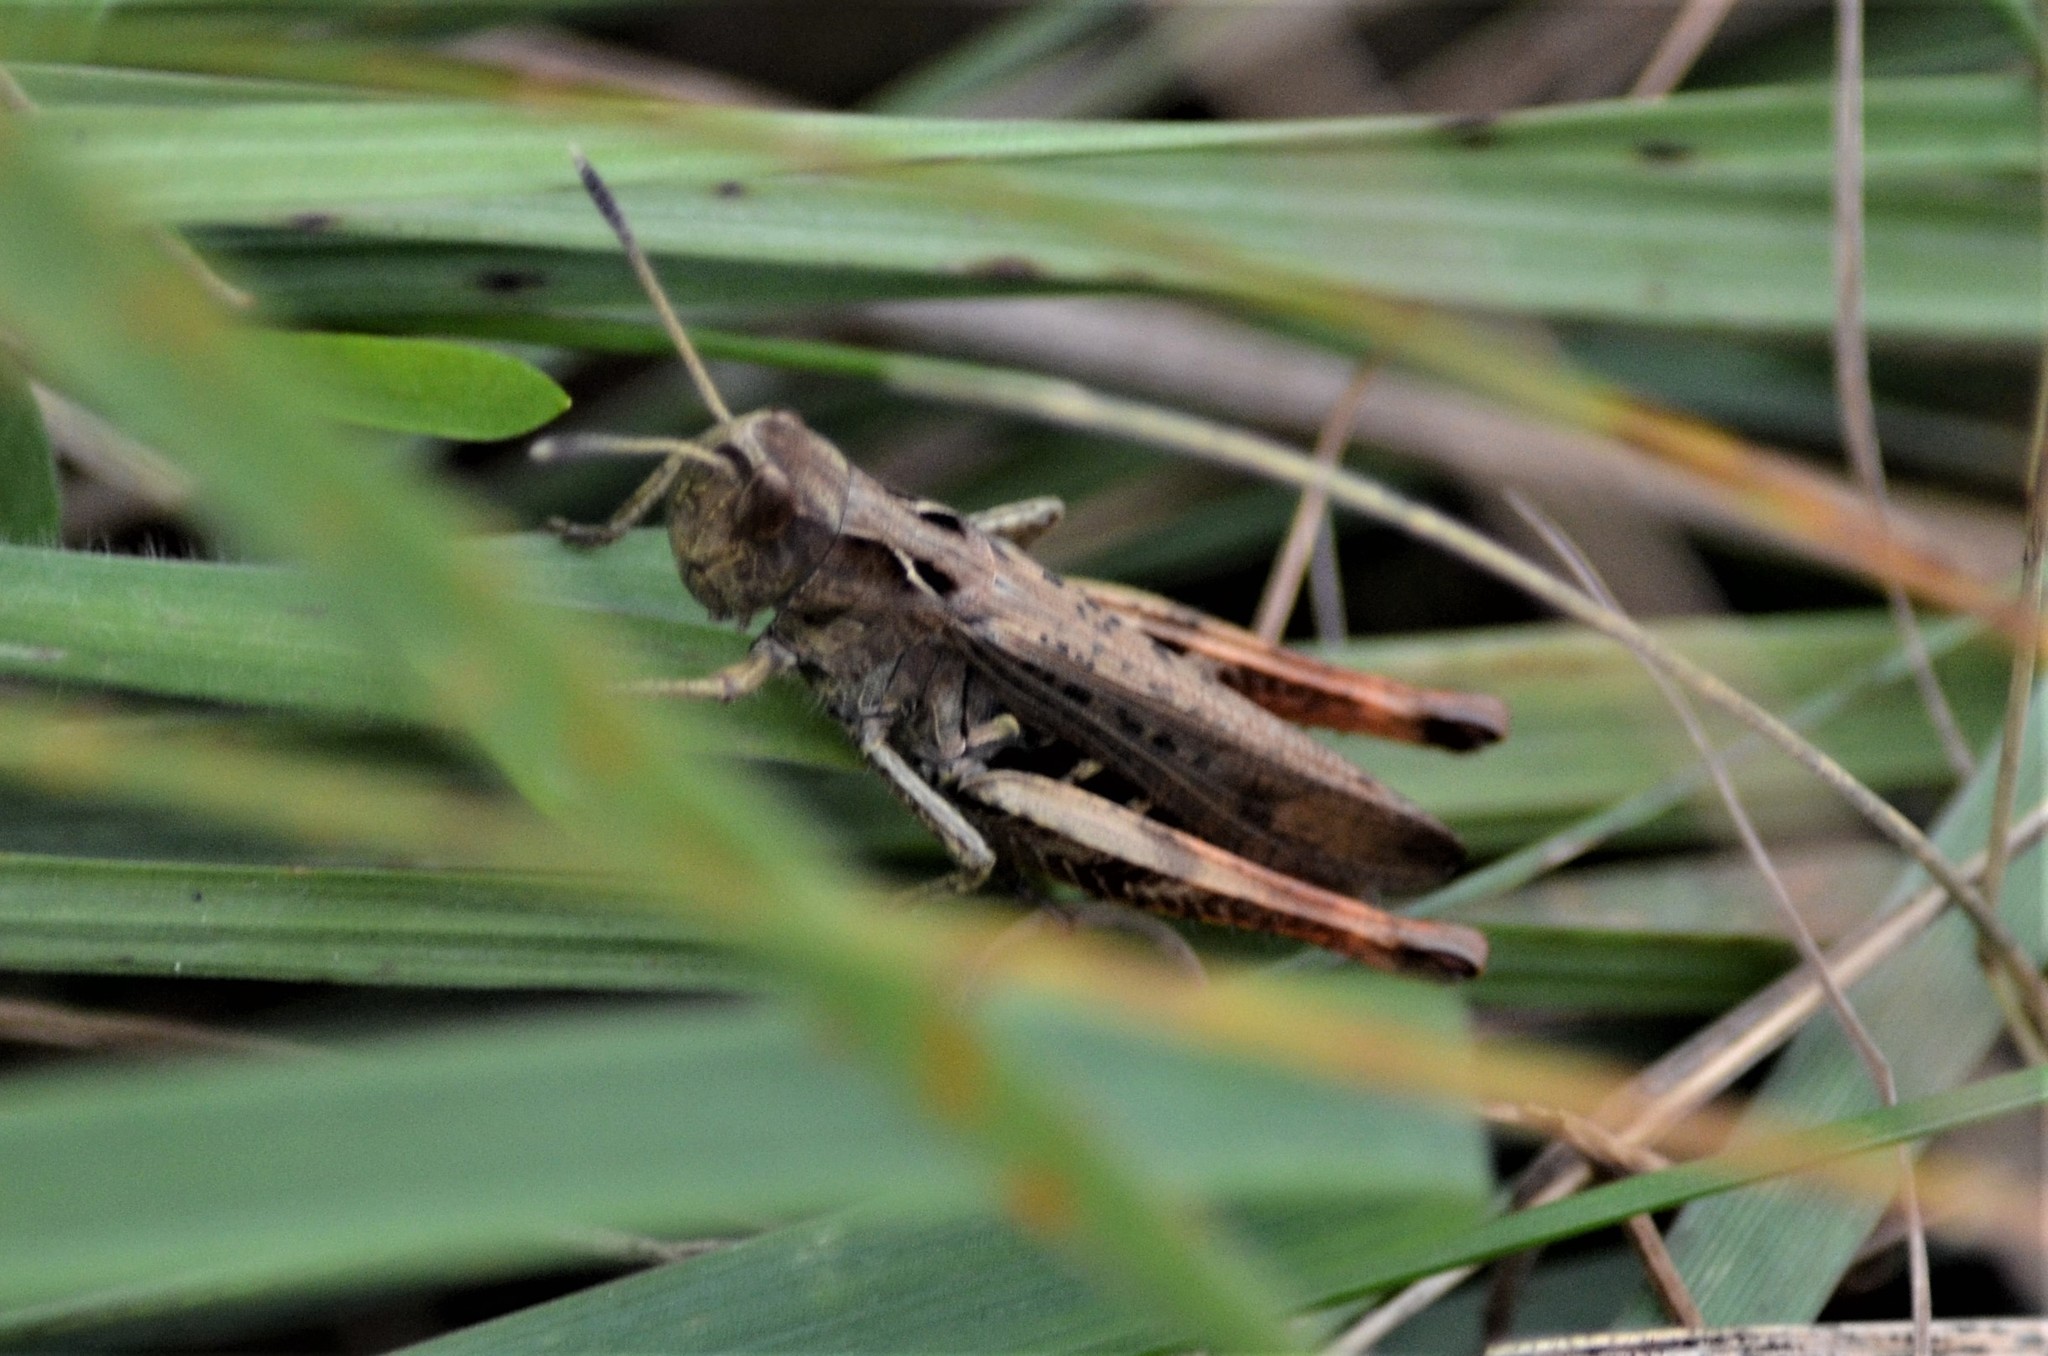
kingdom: Animalia
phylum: Arthropoda
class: Insecta
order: Orthoptera
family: Acrididae
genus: Gomphocerippus
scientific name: Gomphocerippus rufus
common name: Rufous grasshopper
